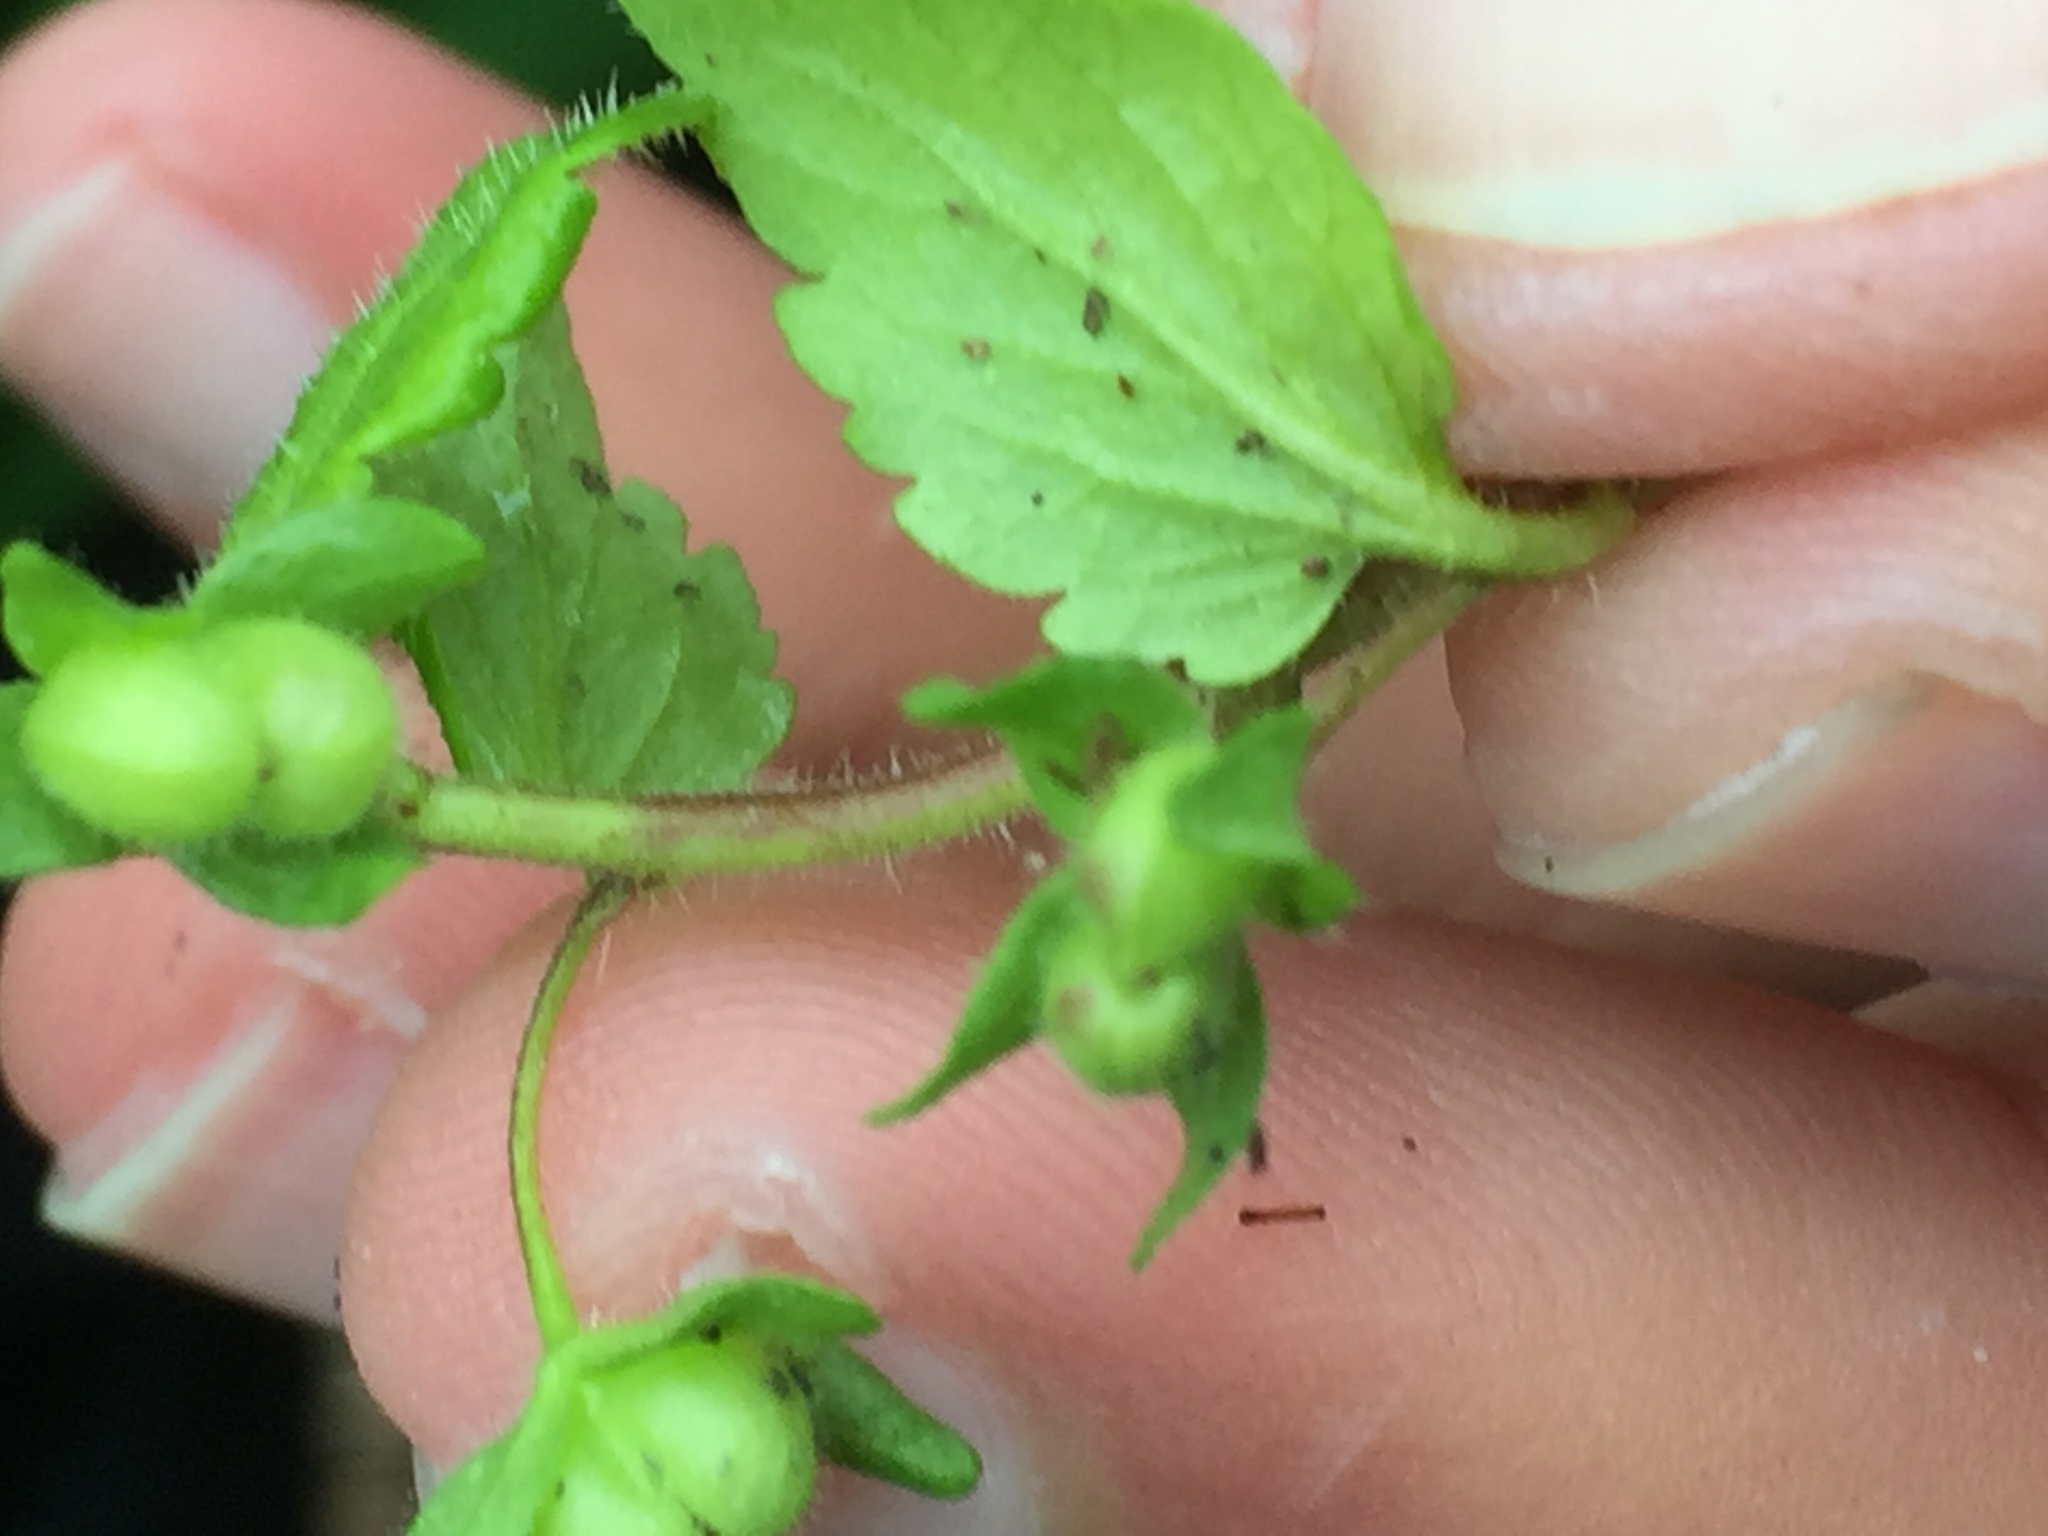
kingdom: Plantae
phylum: Tracheophyta
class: Magnoliopsida
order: Lamiales
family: Plantaginaceae
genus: Veronica
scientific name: Veronica agrestis
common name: Green field-speedwell
